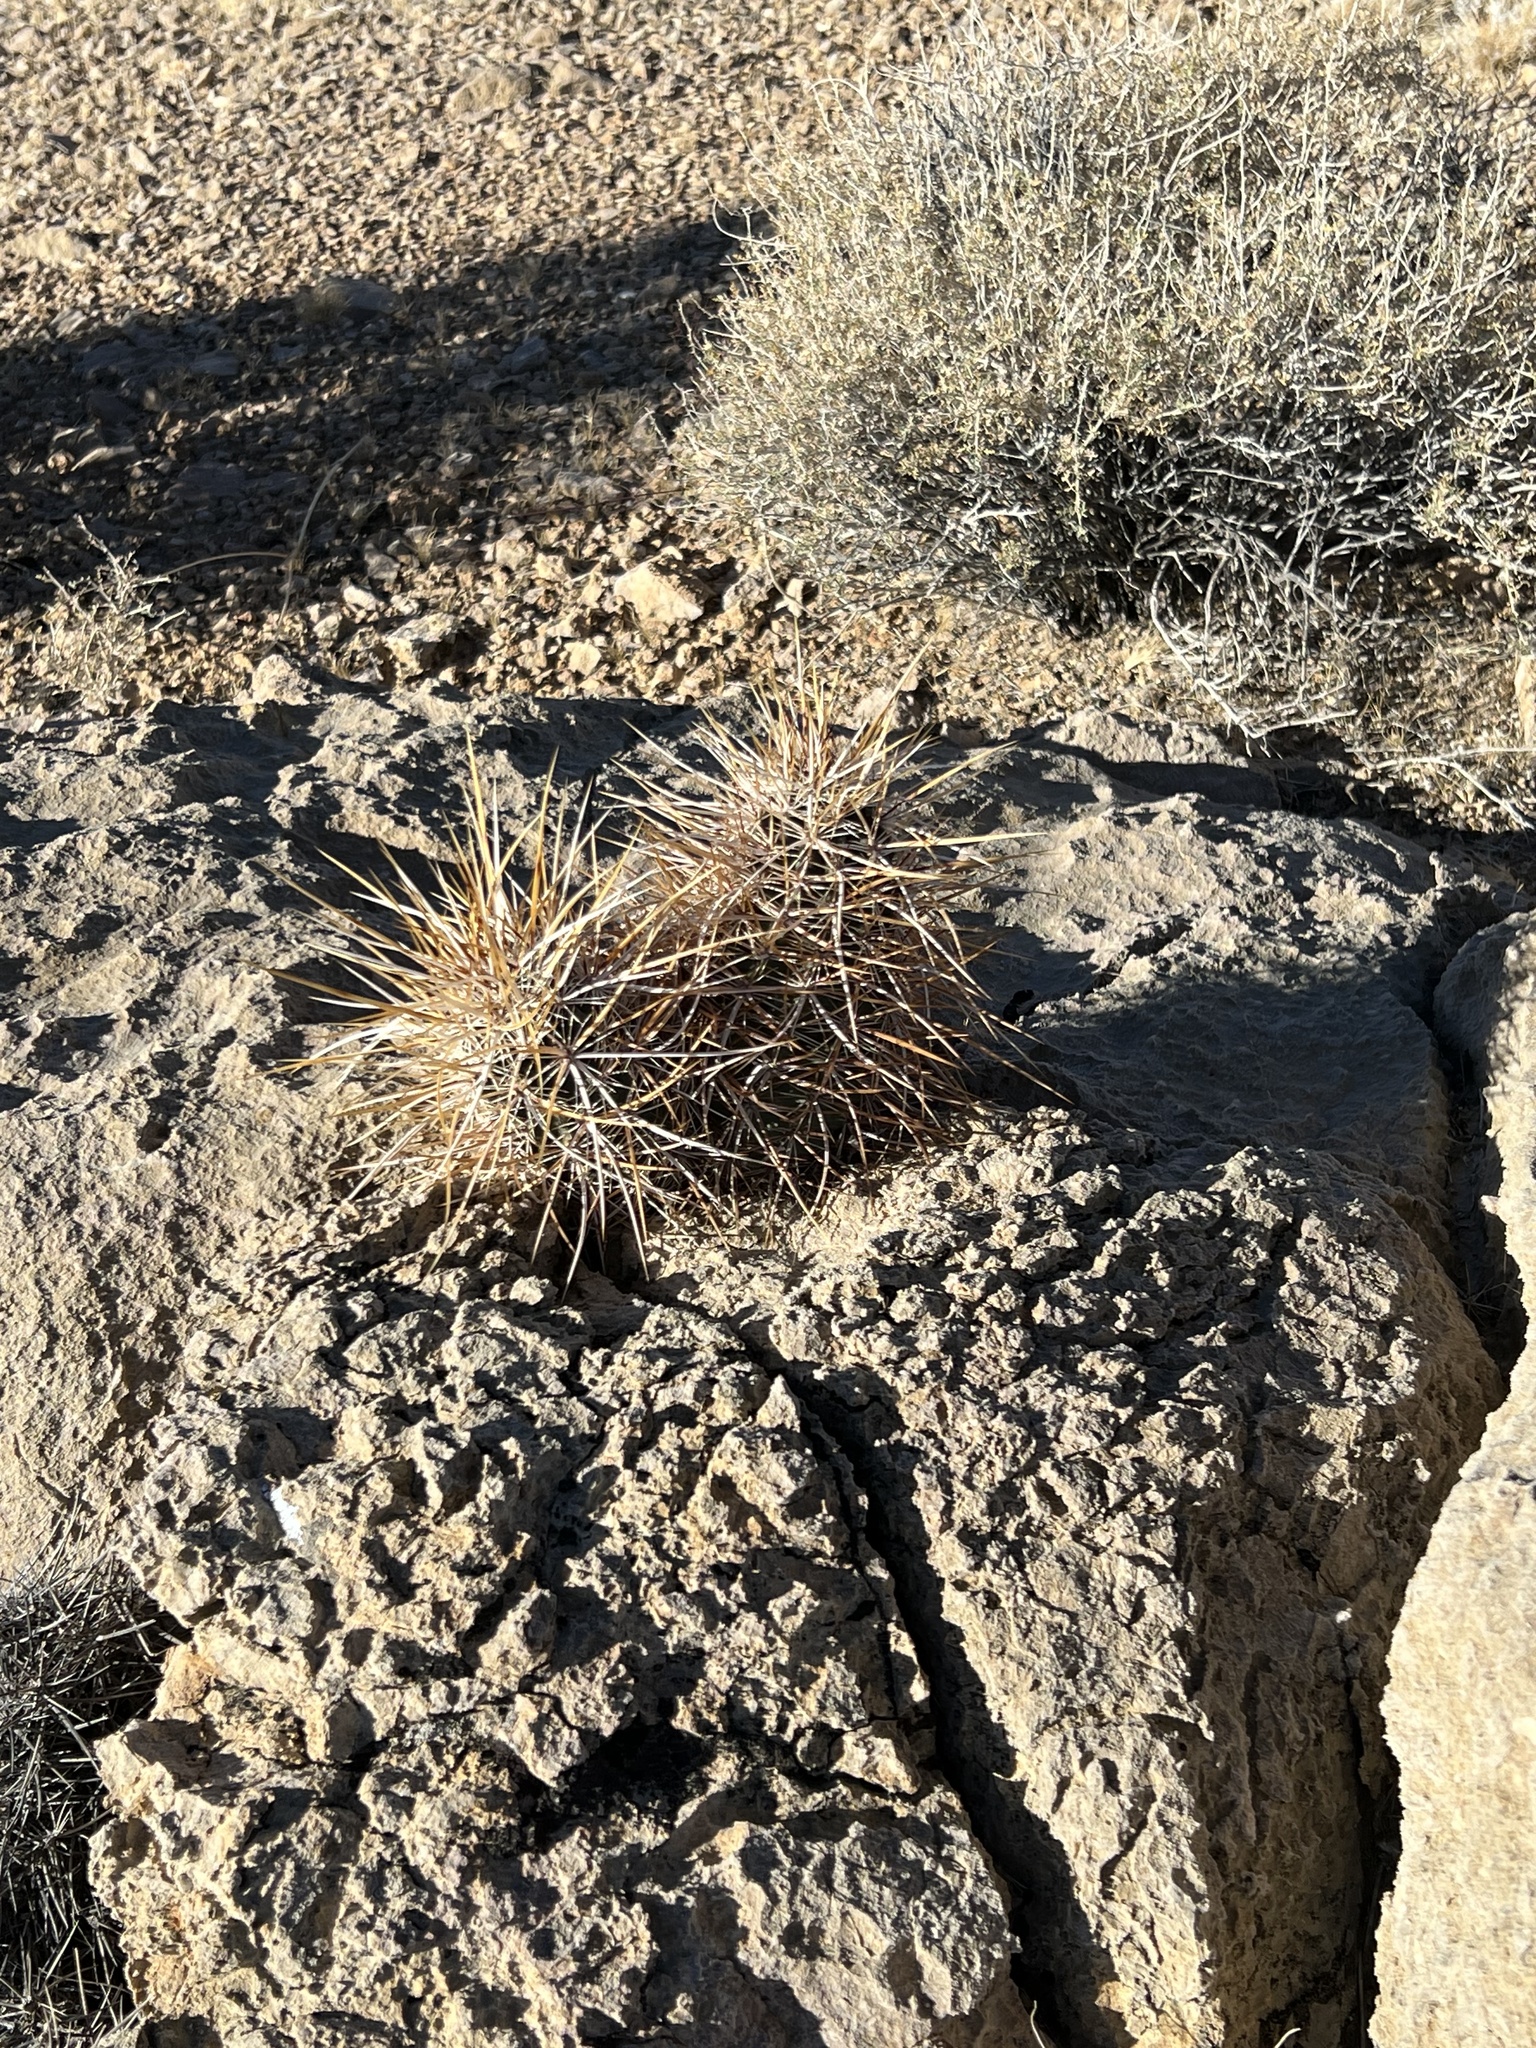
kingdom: Plantae
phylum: Tracheophyta
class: Magnoliopsida
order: Caryophyllales
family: Cactaceae
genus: Echinocereus
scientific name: Echinocereus engelmannii
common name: Engelmann's hedgehog cactus
